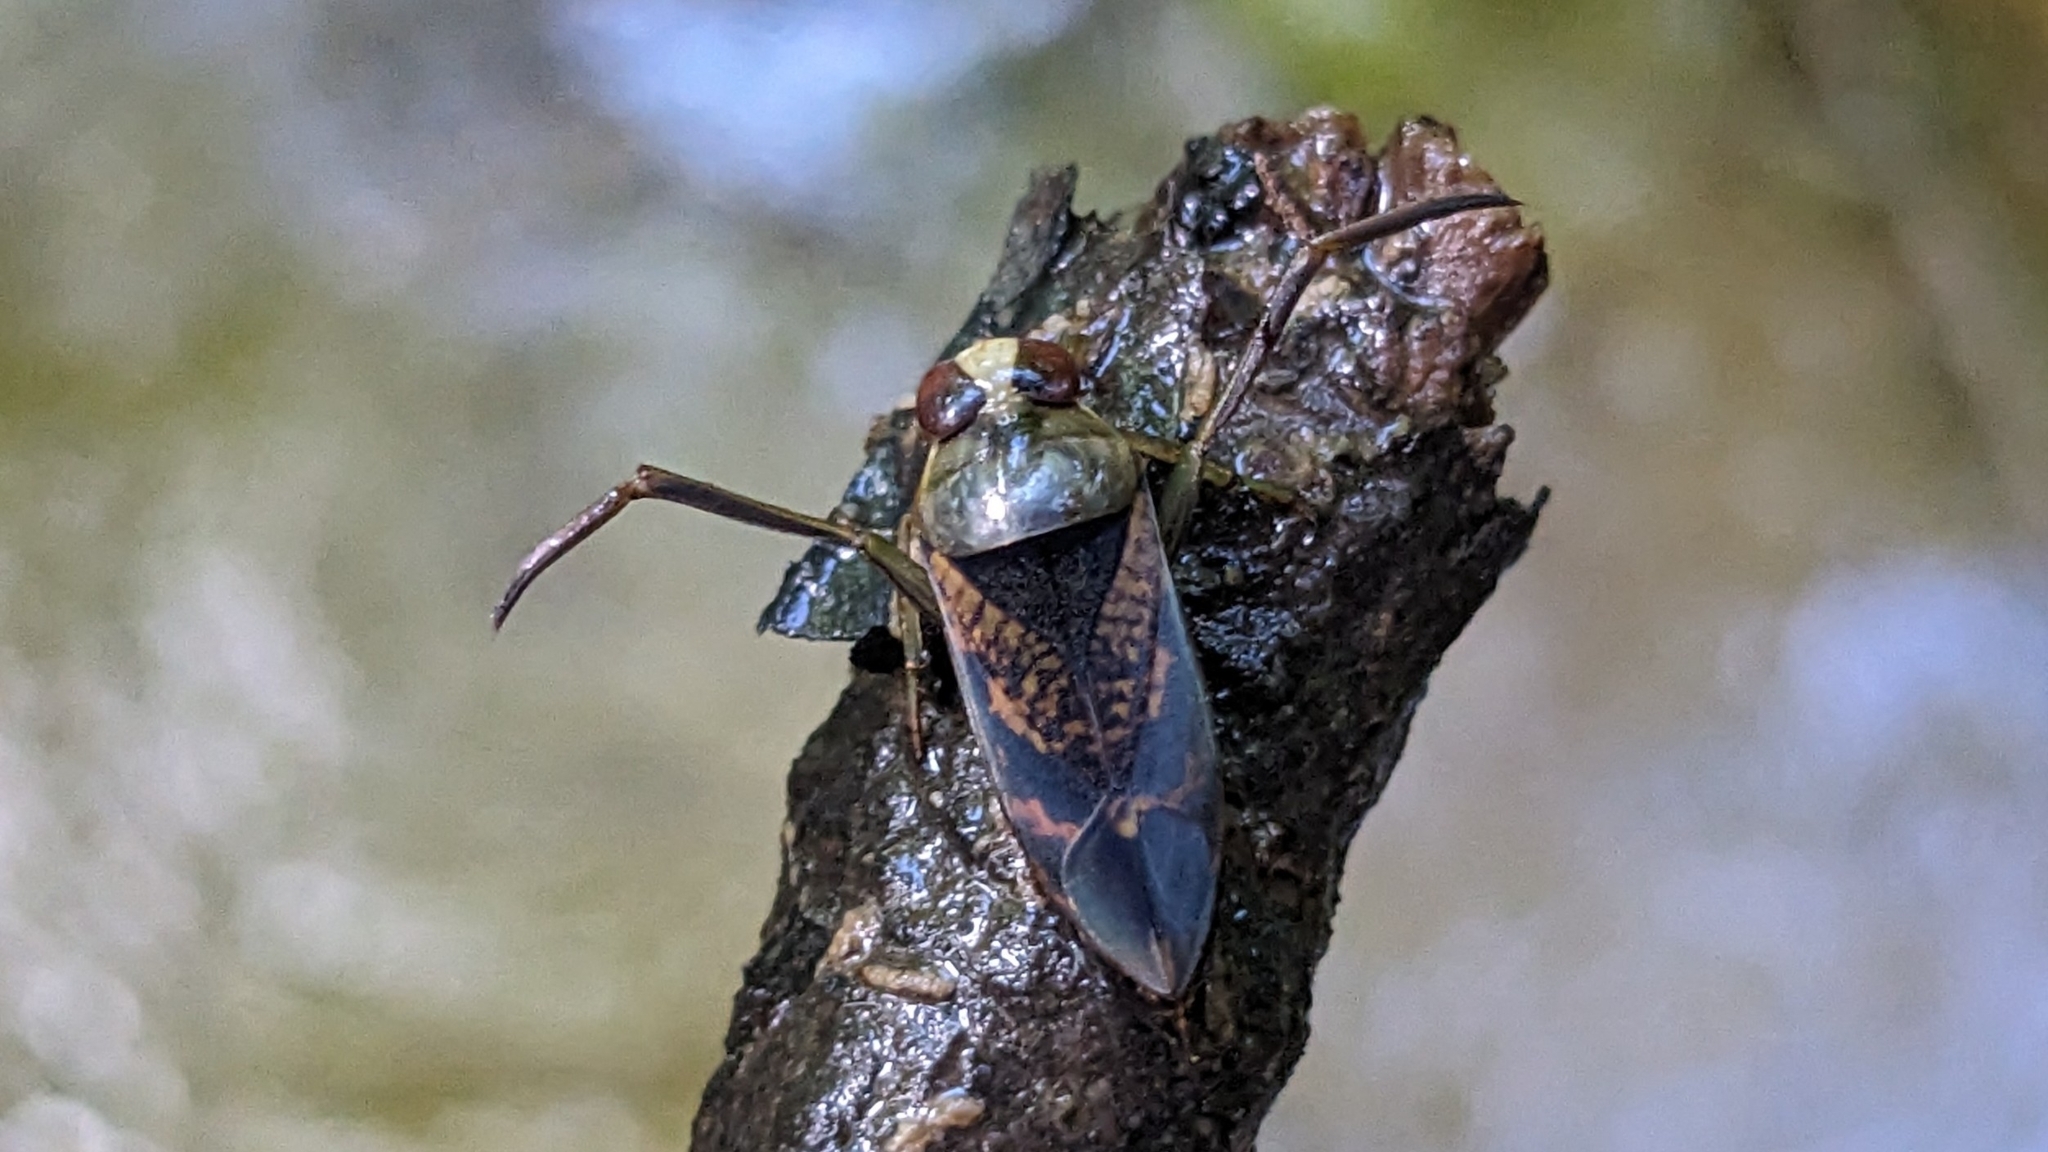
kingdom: Animalia
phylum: Arthropoda
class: Insecta
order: Hemiptera
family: Notonectidae
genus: Notonecta
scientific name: Notonecta irrorata
